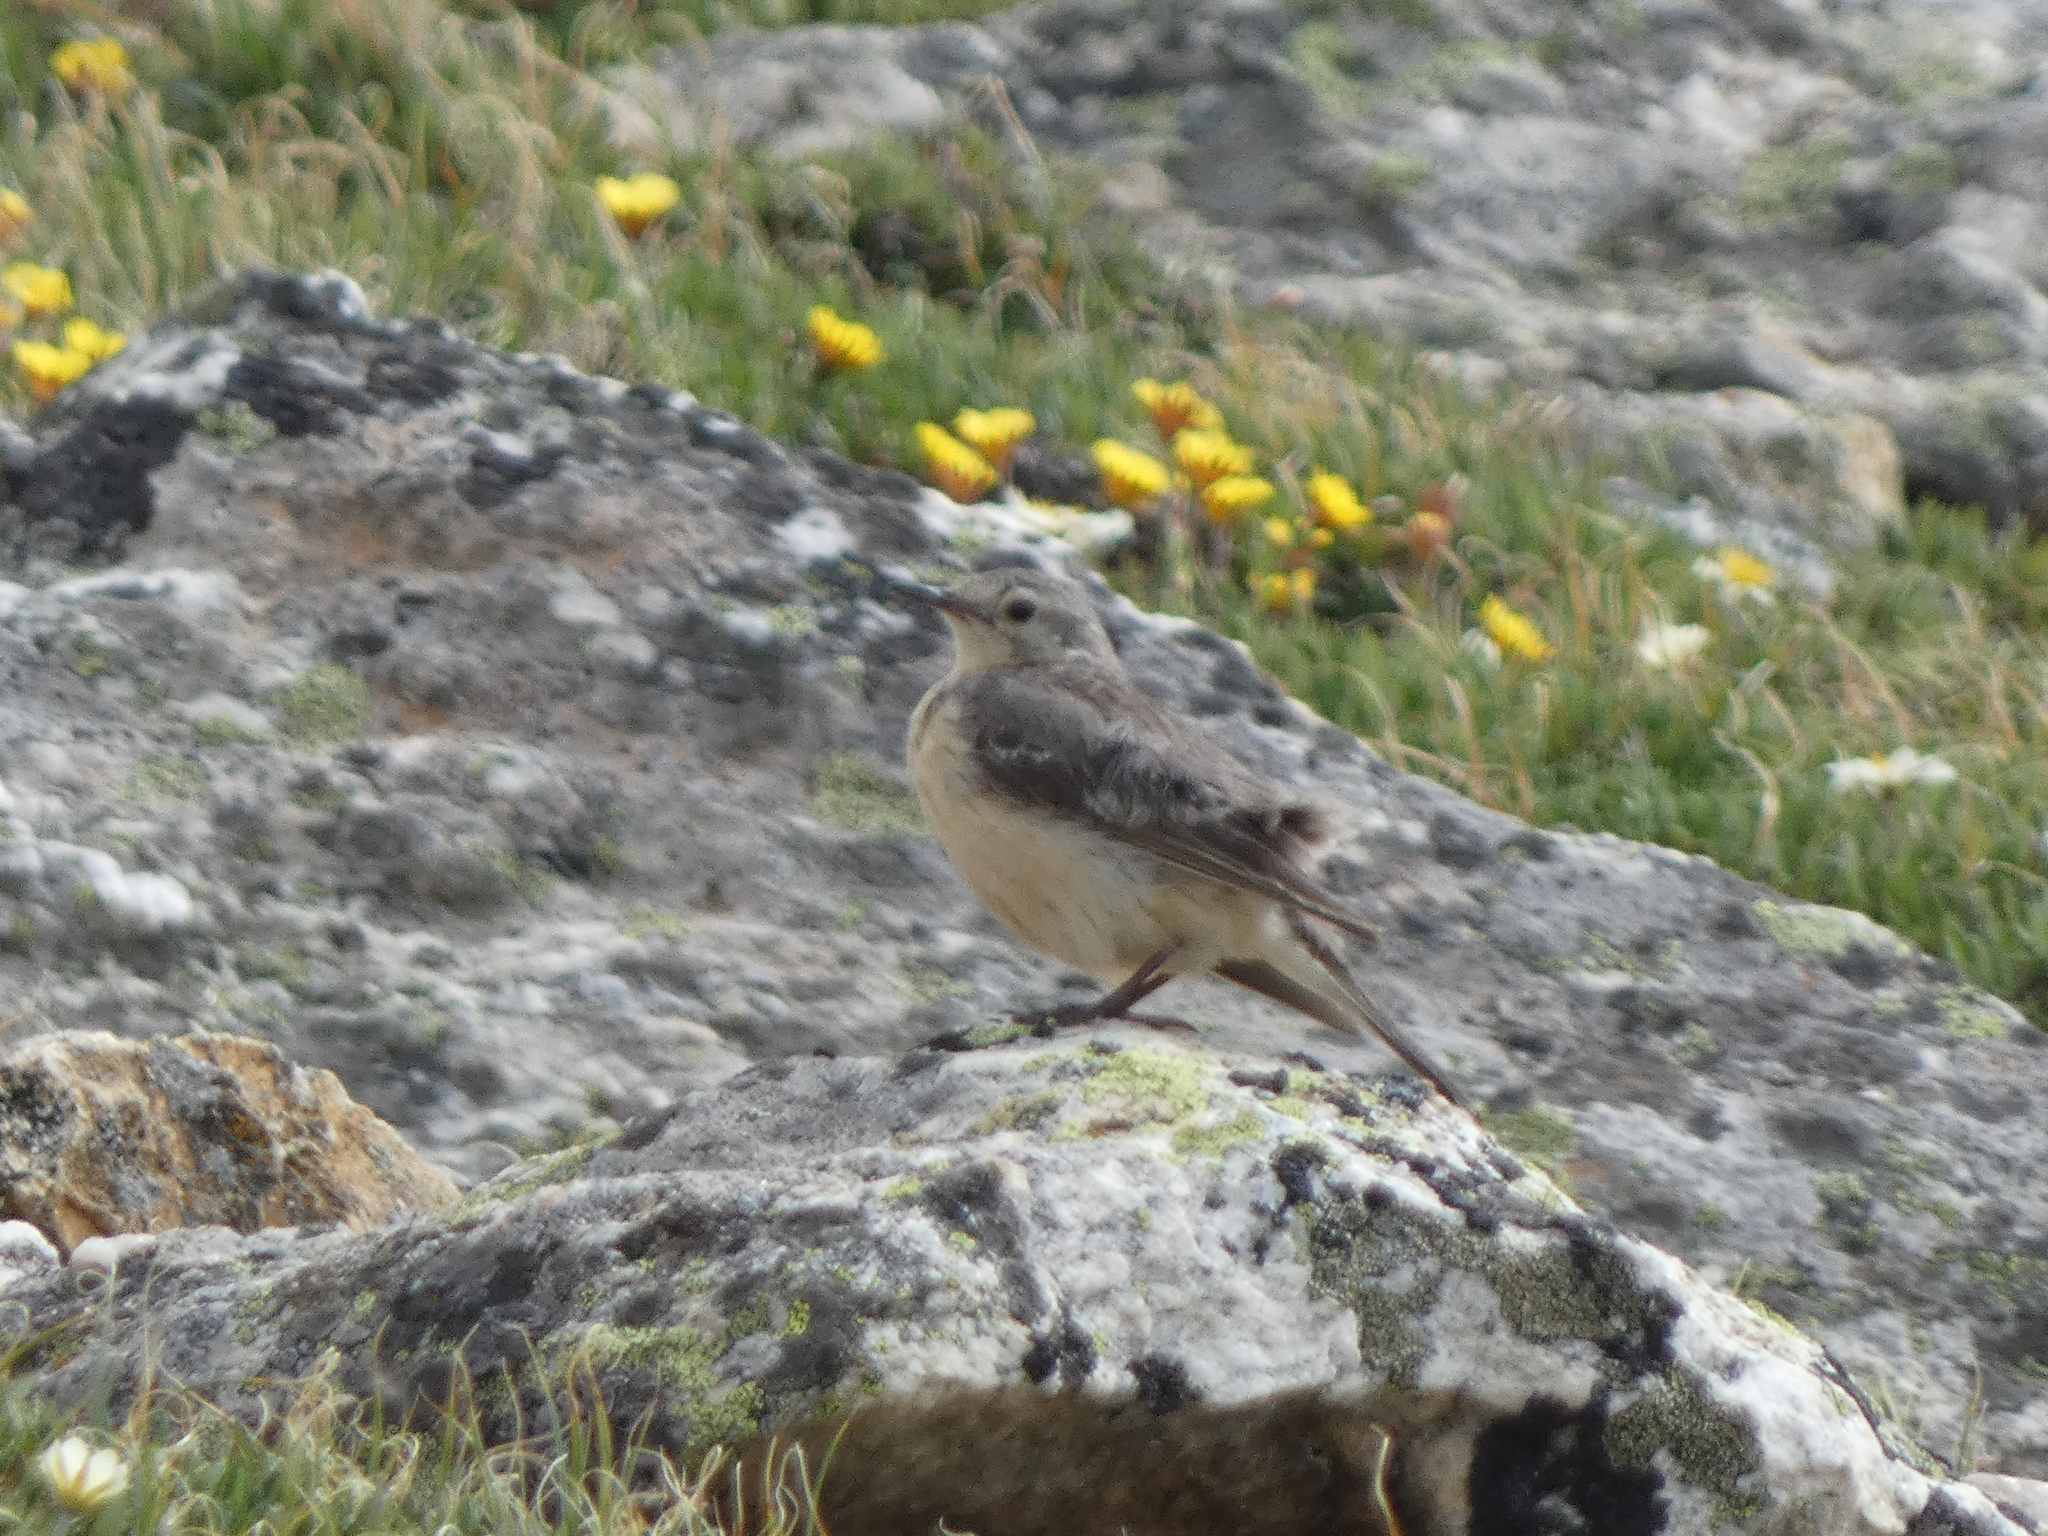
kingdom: Animalia
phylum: Chordata
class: Aves
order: Passeriformes
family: Motacillidae
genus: Anthus
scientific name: Anthus rubescens
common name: Buff-bellied pipit
